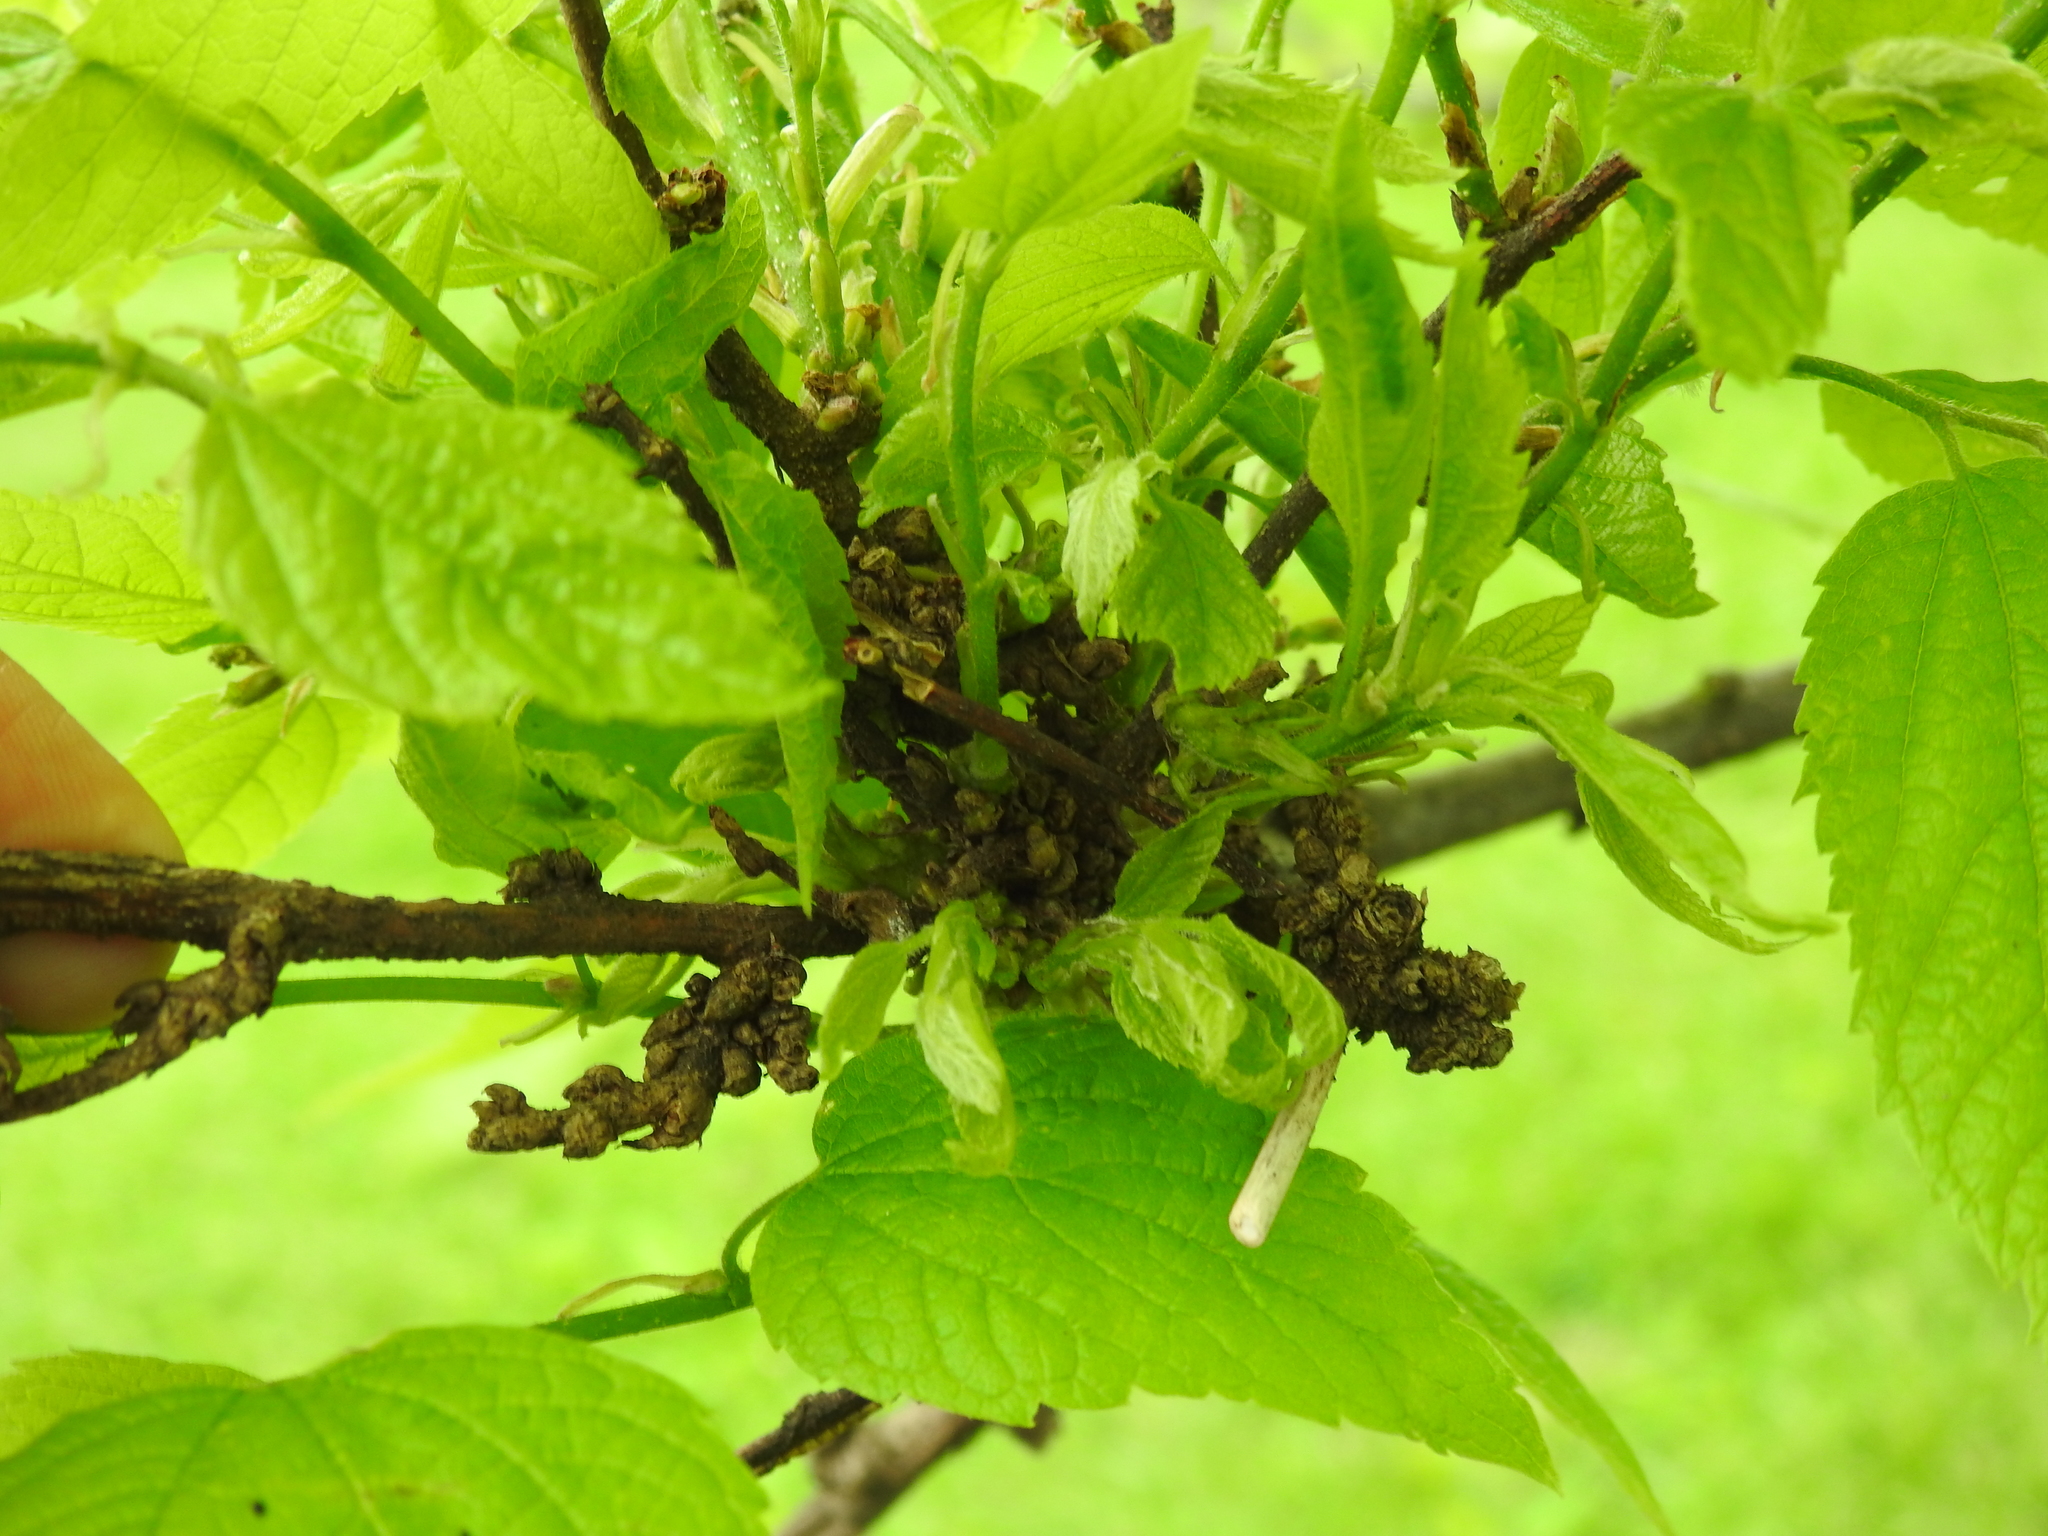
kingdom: Animalia
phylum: Arthropoda
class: Arachnida
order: Trombidiformes
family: Eriophyidae
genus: Aceria
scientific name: Aceria
